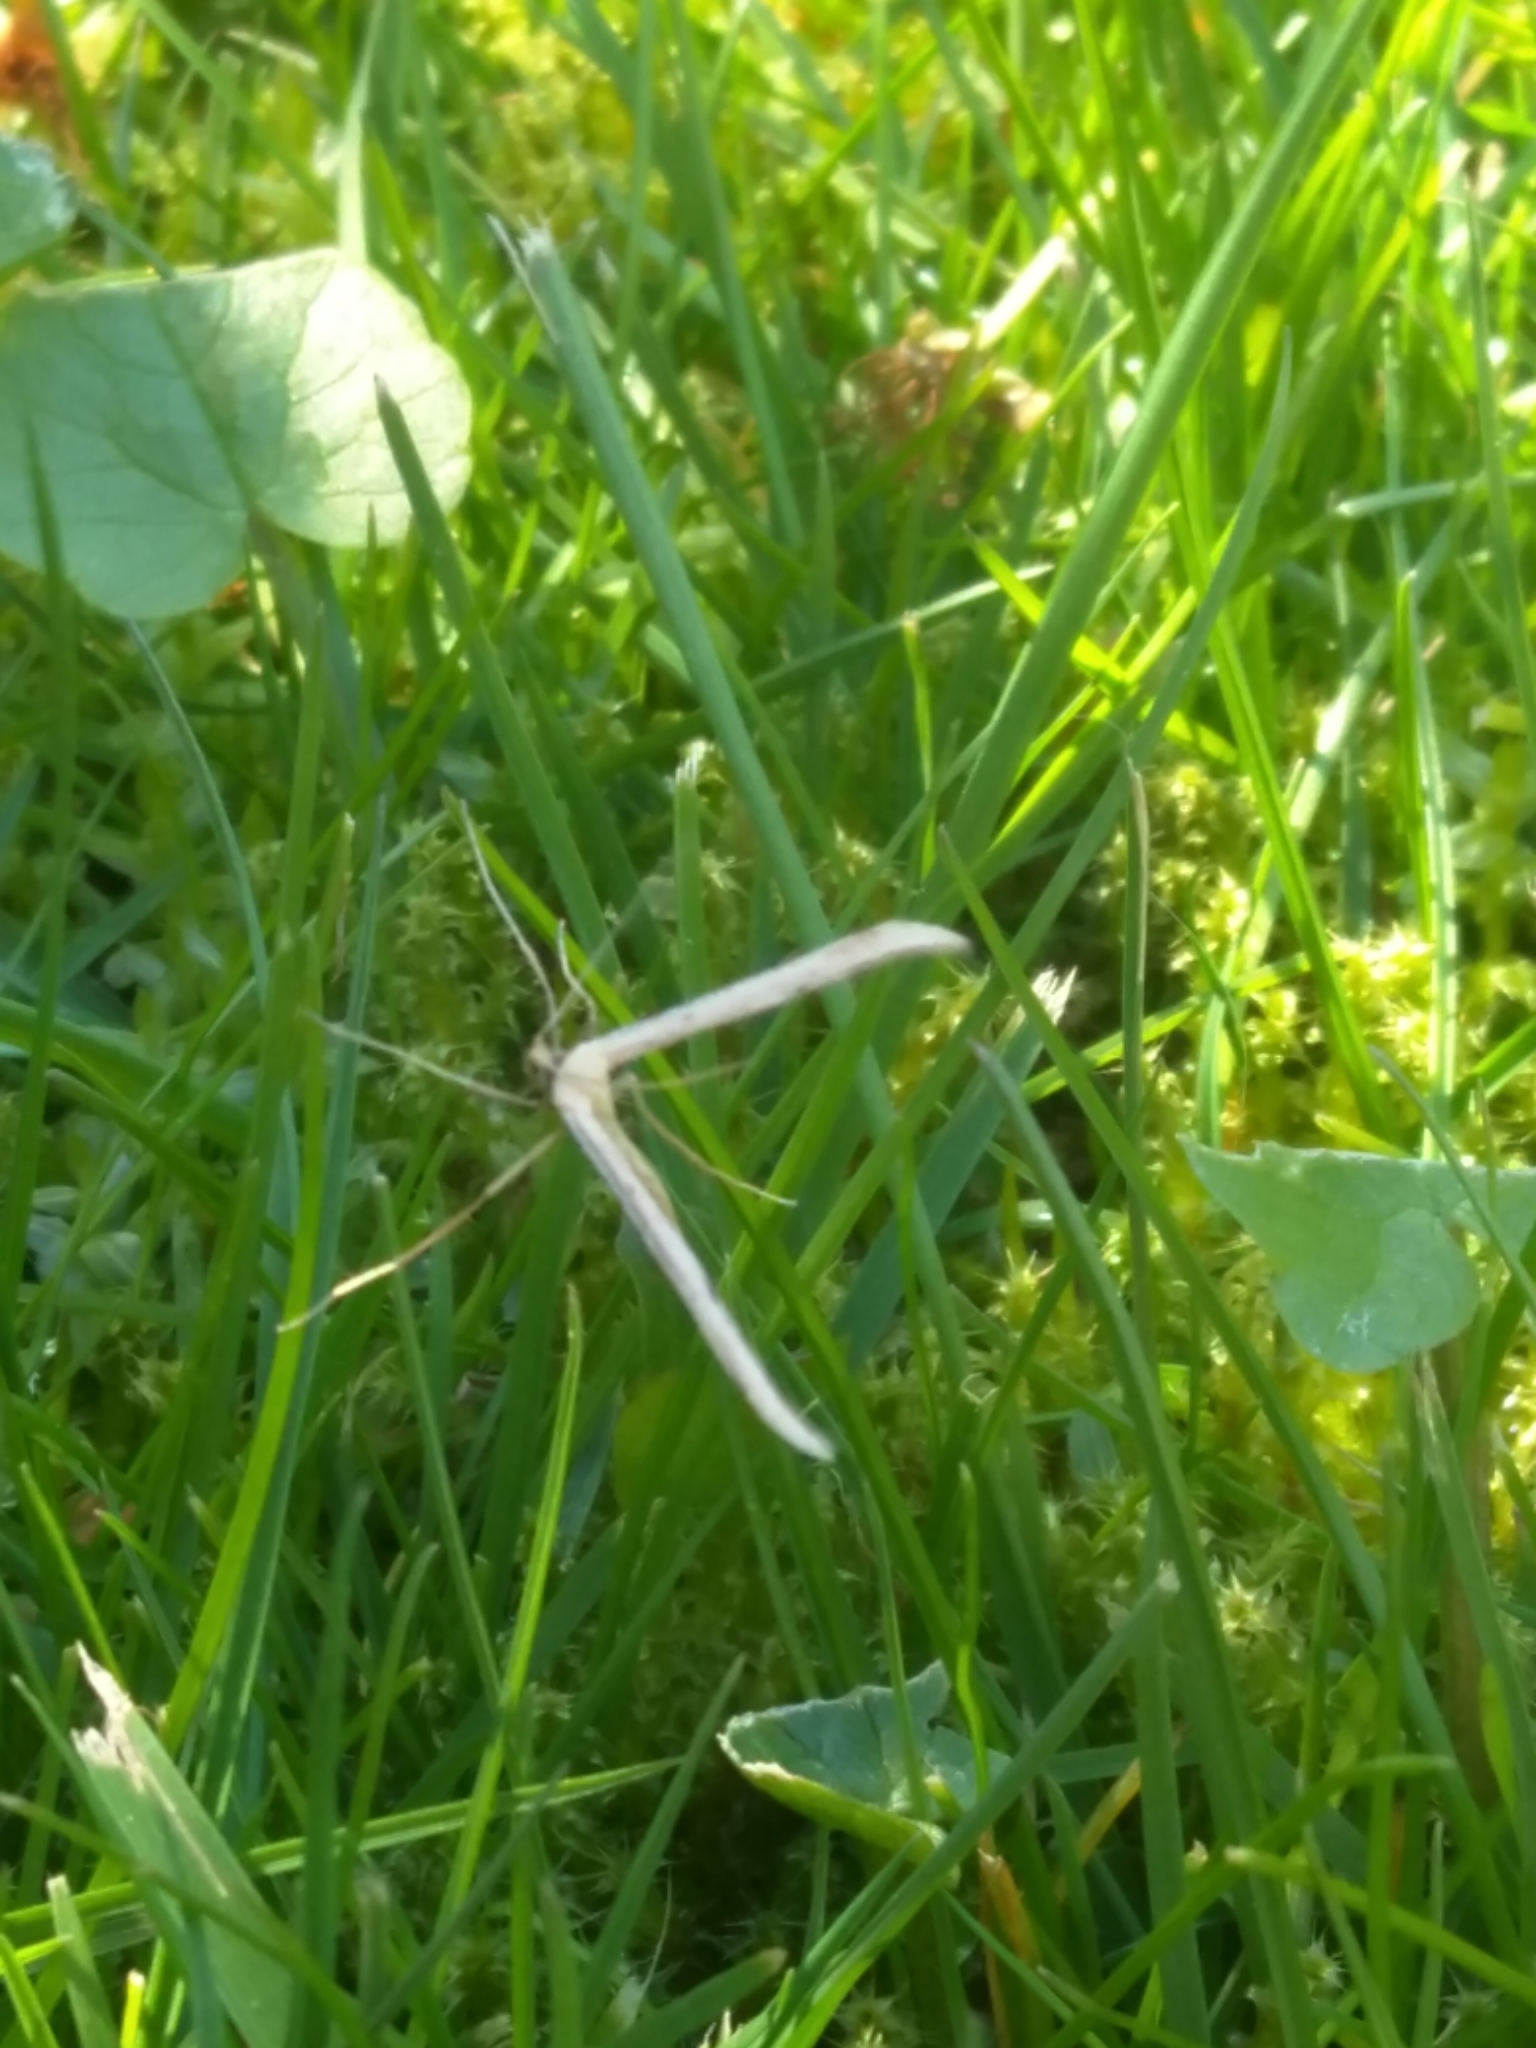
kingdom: Animalia
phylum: Arthropoda
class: Insecta
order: Lepidoptera
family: Pterophoridae
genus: Emmelina
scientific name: Emmelina monodactyla
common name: Common plume
